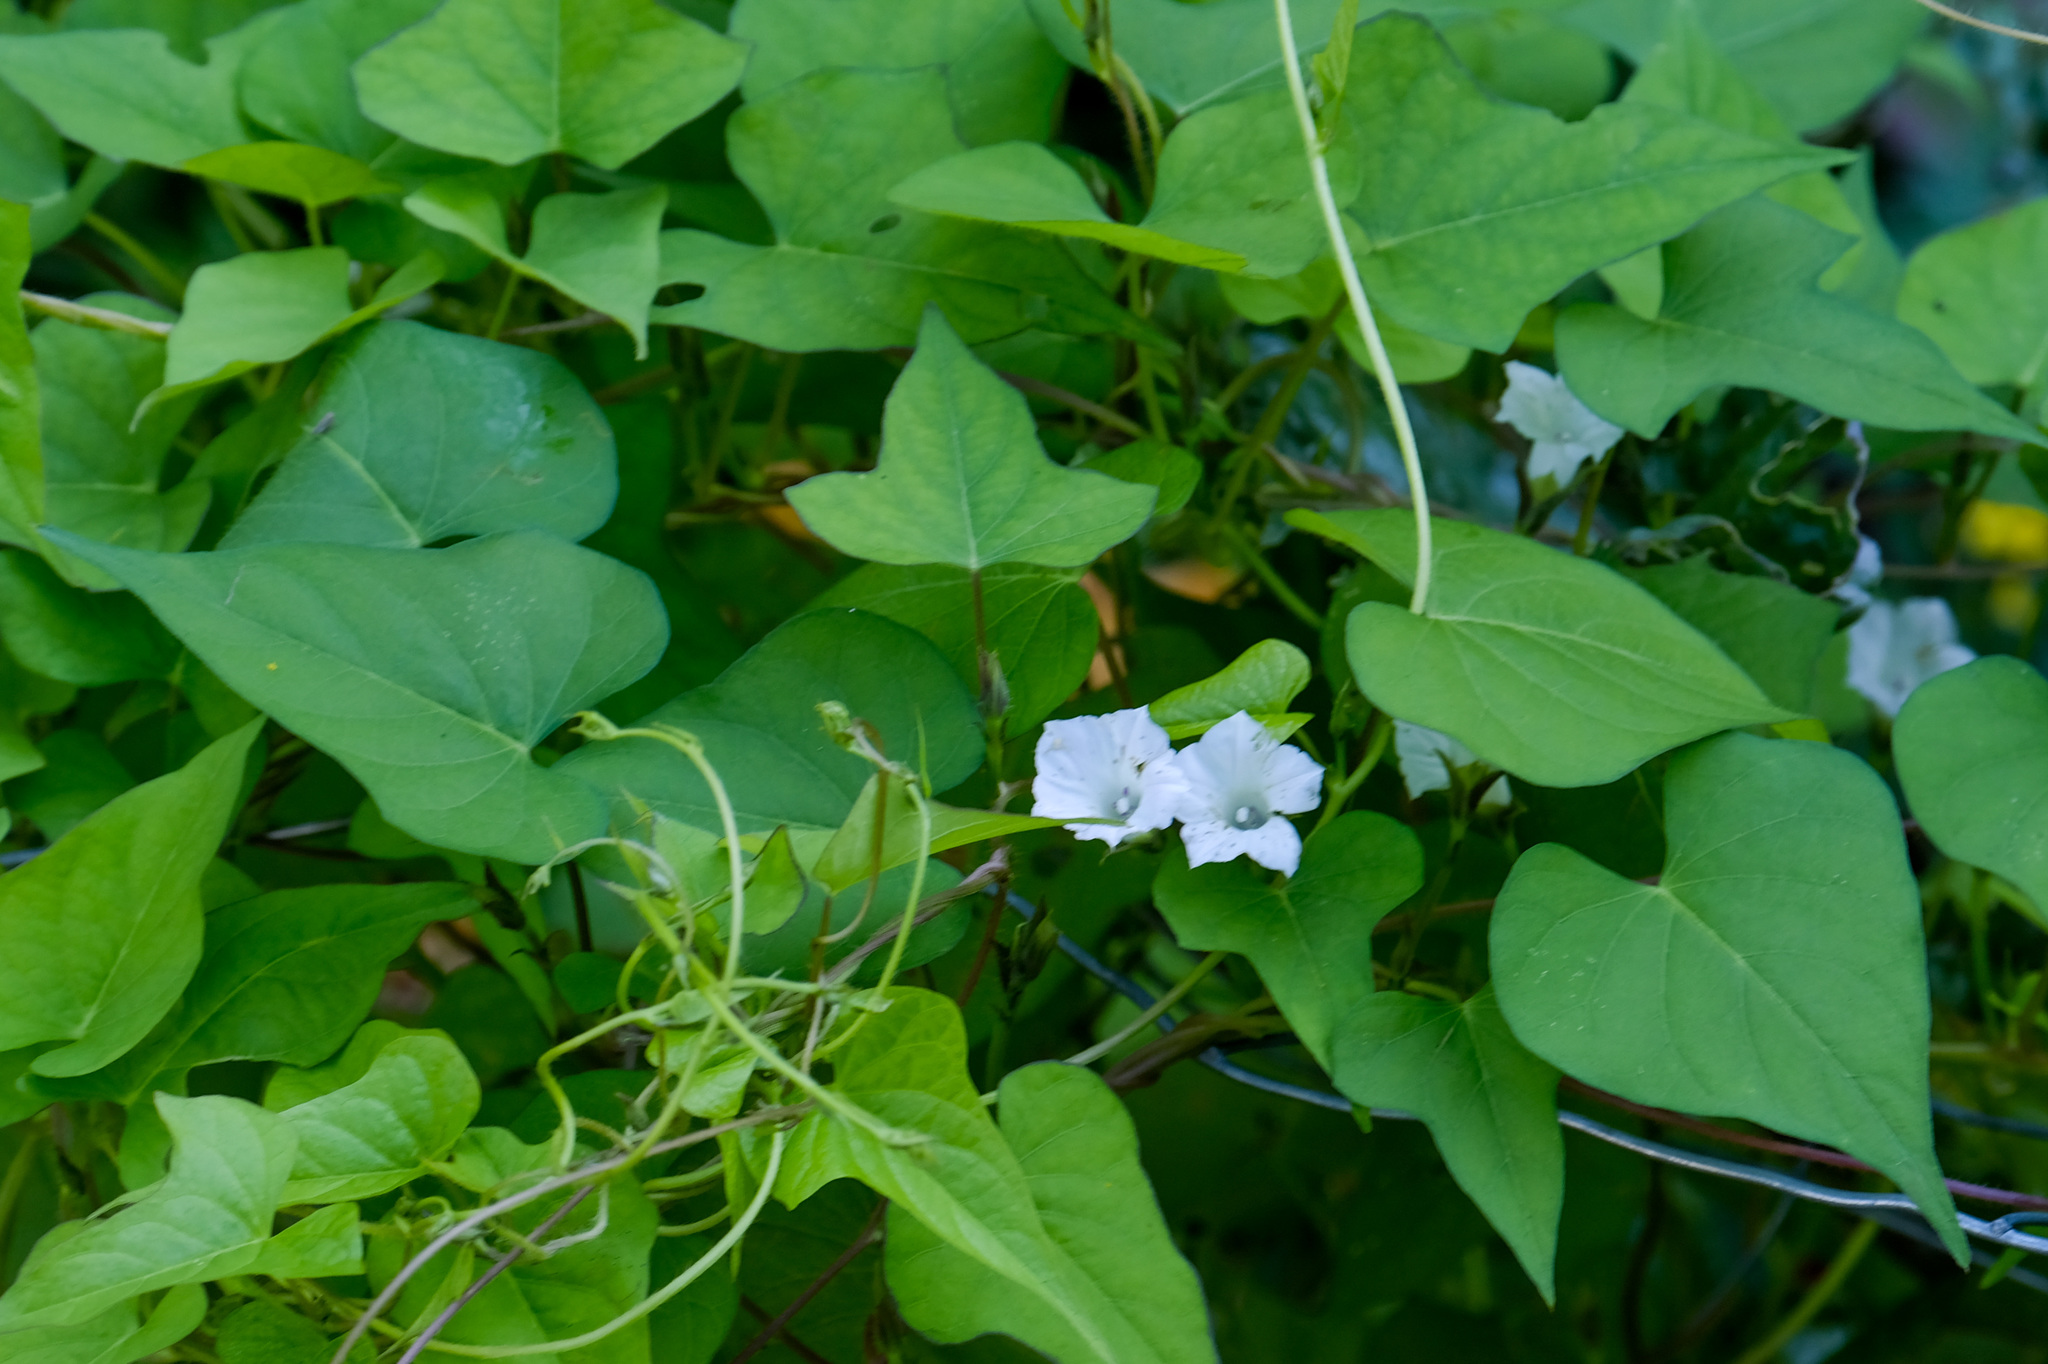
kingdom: Plantae
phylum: Tracheophyta
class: Magnoliopsida
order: Solanales
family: Convolvulaceae
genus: Ipomoea
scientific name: Ipomoea lacunosa
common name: White morning-glory
